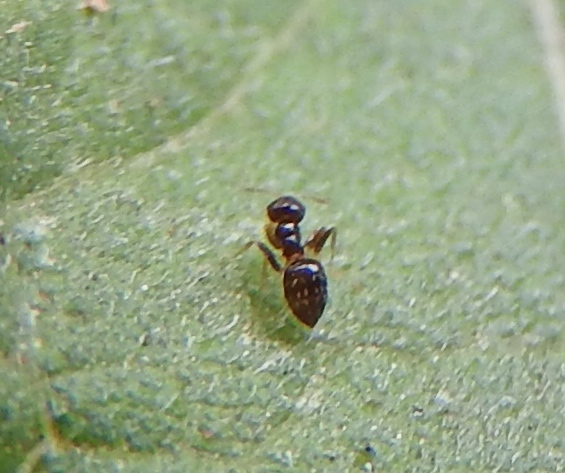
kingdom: Animalia
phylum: Arthropoda
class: Insecta
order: Hymenoptera
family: Formicidae
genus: Brachymyrmex
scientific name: Brachymyrmex
